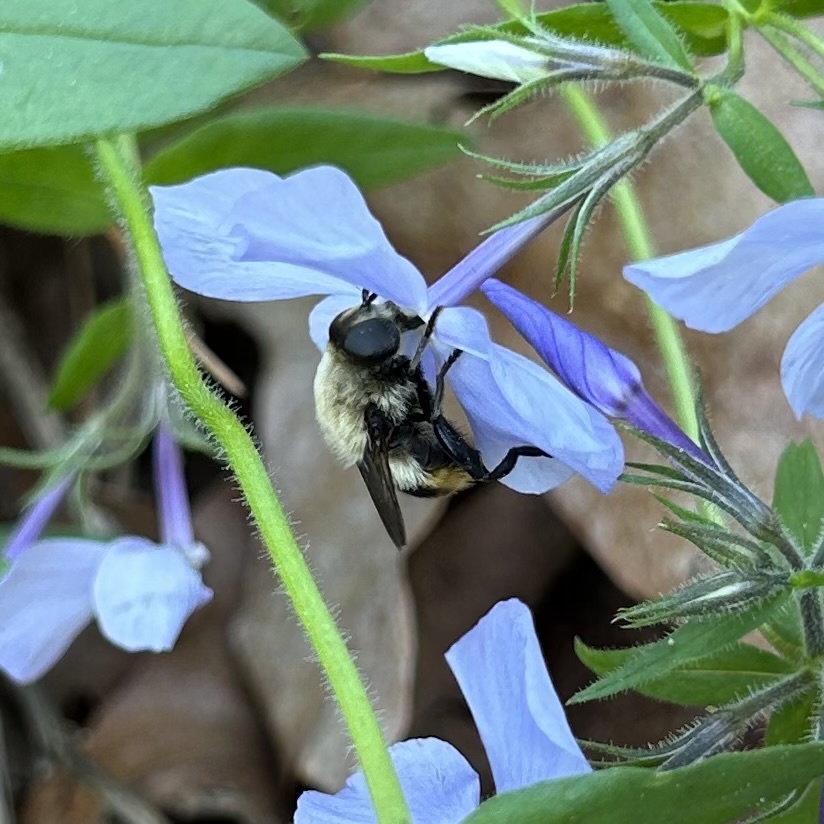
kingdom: Animalia
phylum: Arthropoda
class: Insecta
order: Diptera
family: Syrphidae
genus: Merodon
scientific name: Merodon equestris
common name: Greater bulb-fly
